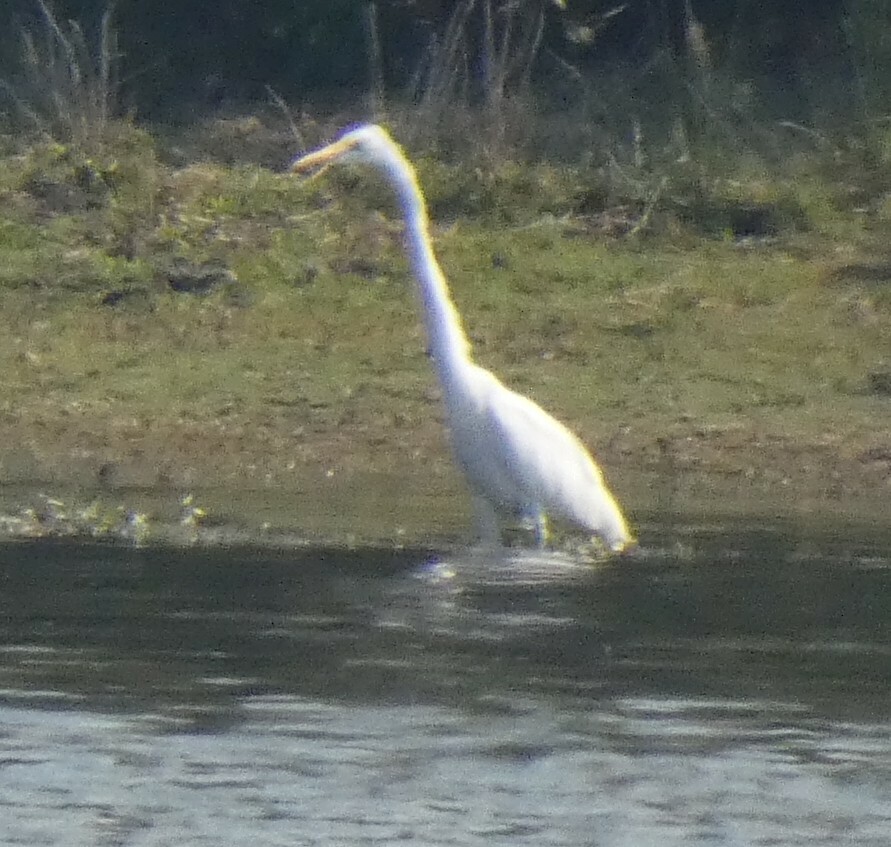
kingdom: Animalia
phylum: Chordata
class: Aves
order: Pelecaniformes
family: Ardeidae
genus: Ardea
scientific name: Ardea alba
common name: Great egret
